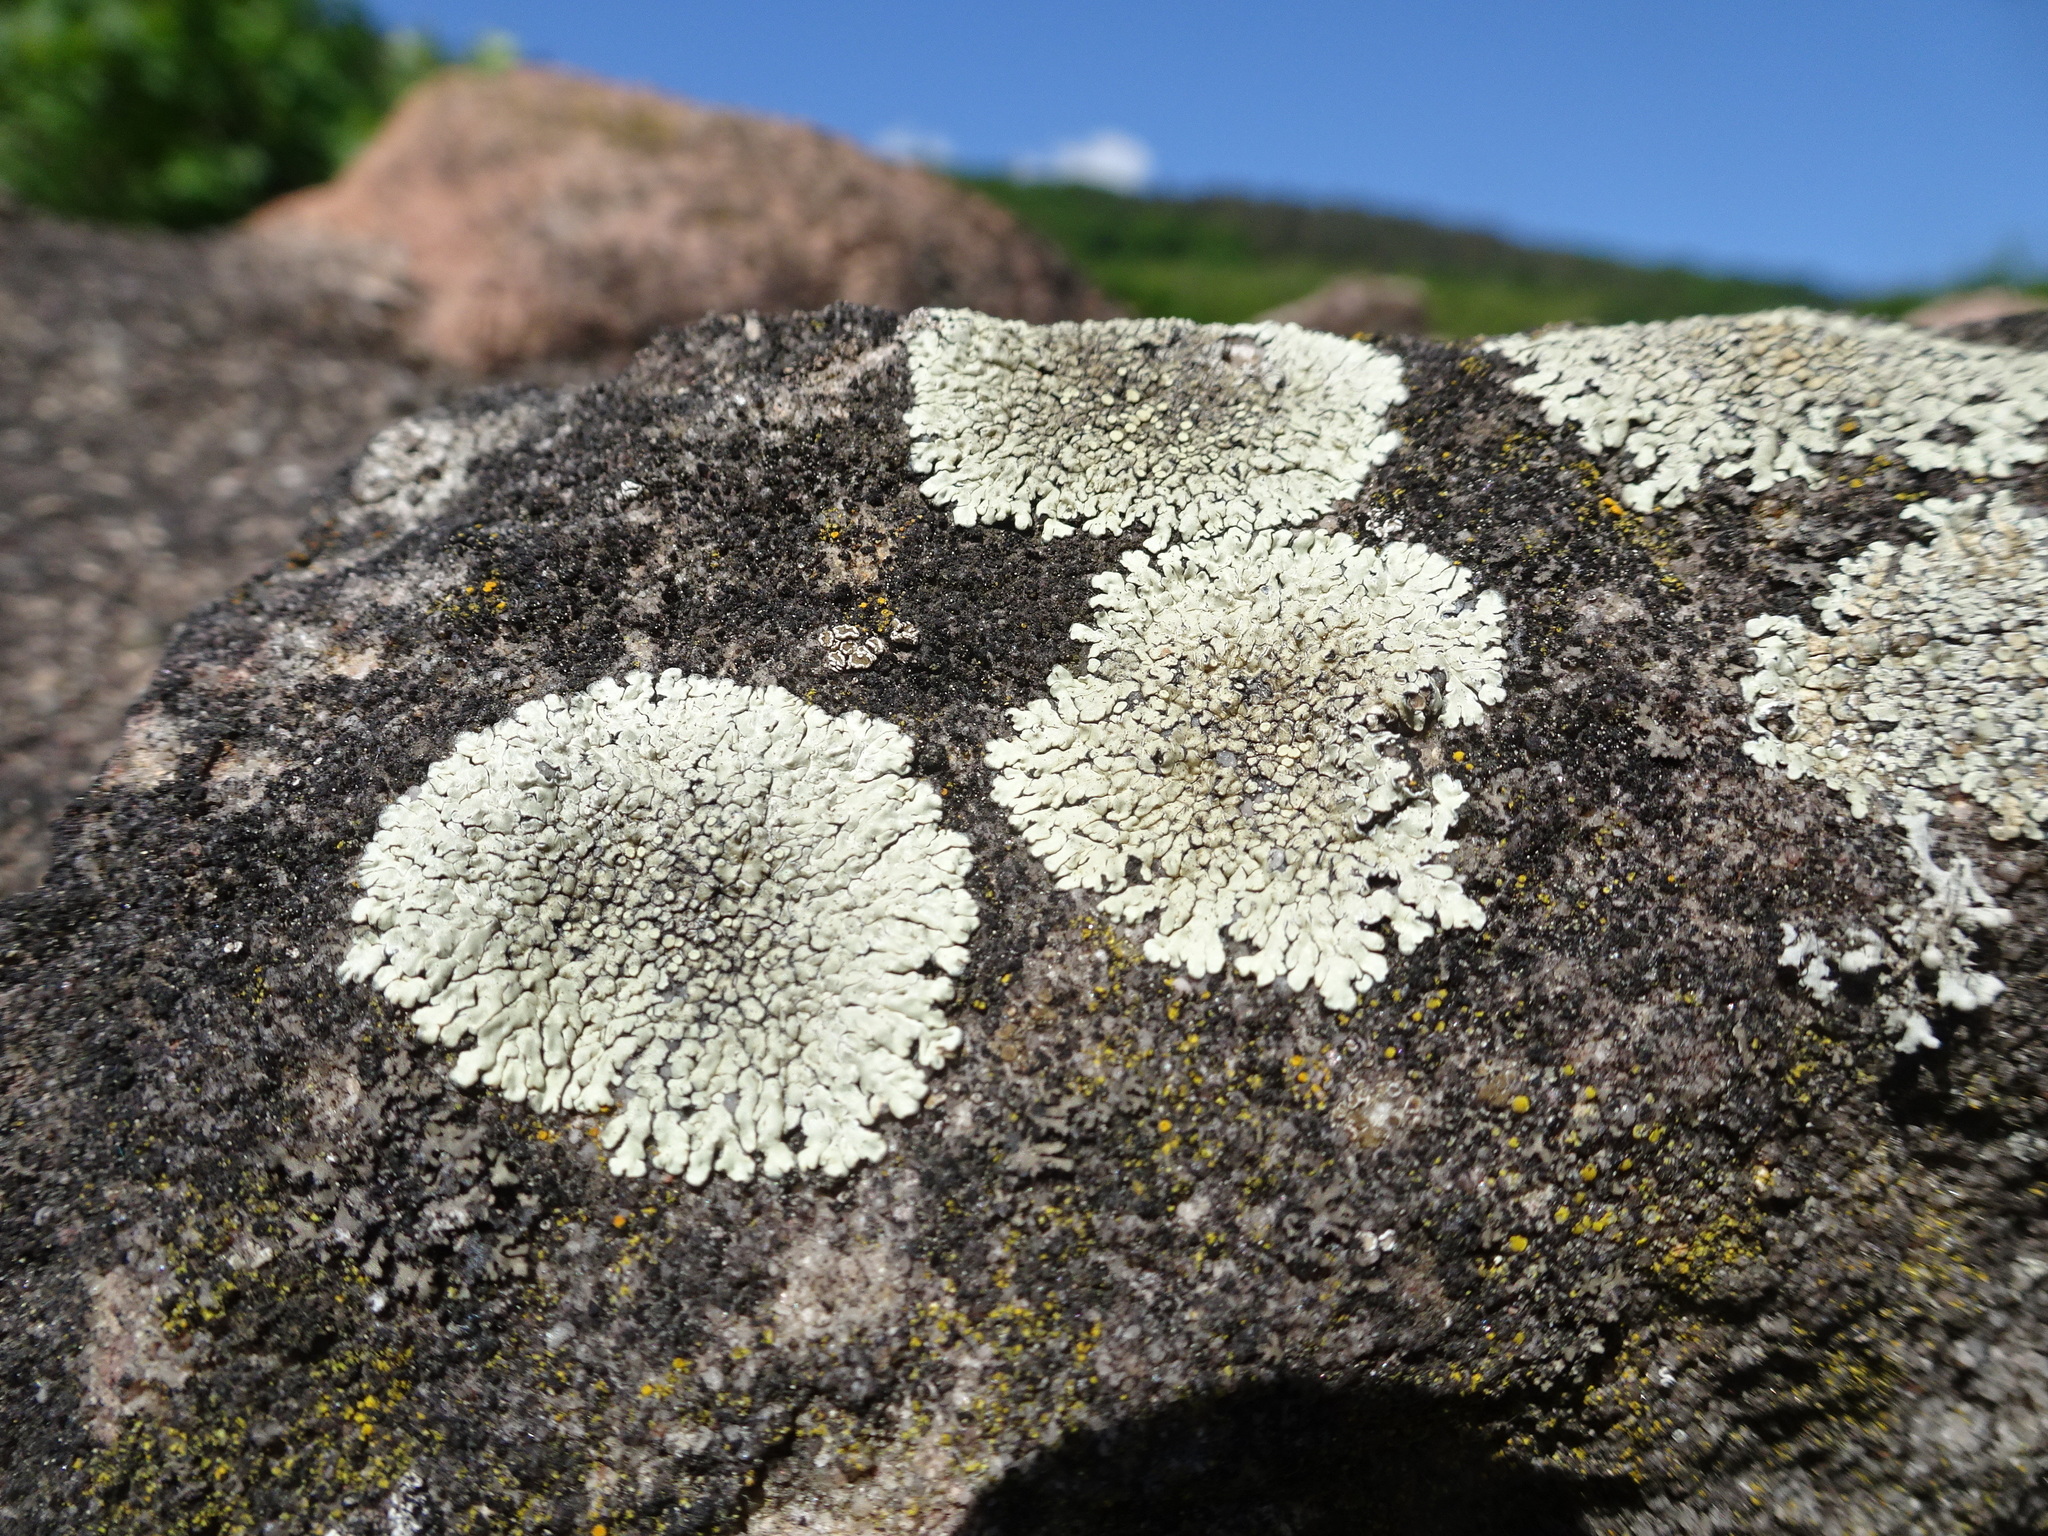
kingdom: Fungi
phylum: Ascomycota
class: Lecanoromycetes
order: Lecanorales
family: Lecanoraceae
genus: Protoparmeliopsis
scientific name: Protoparmeliopsis muralis
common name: Stonewall rim lichen
